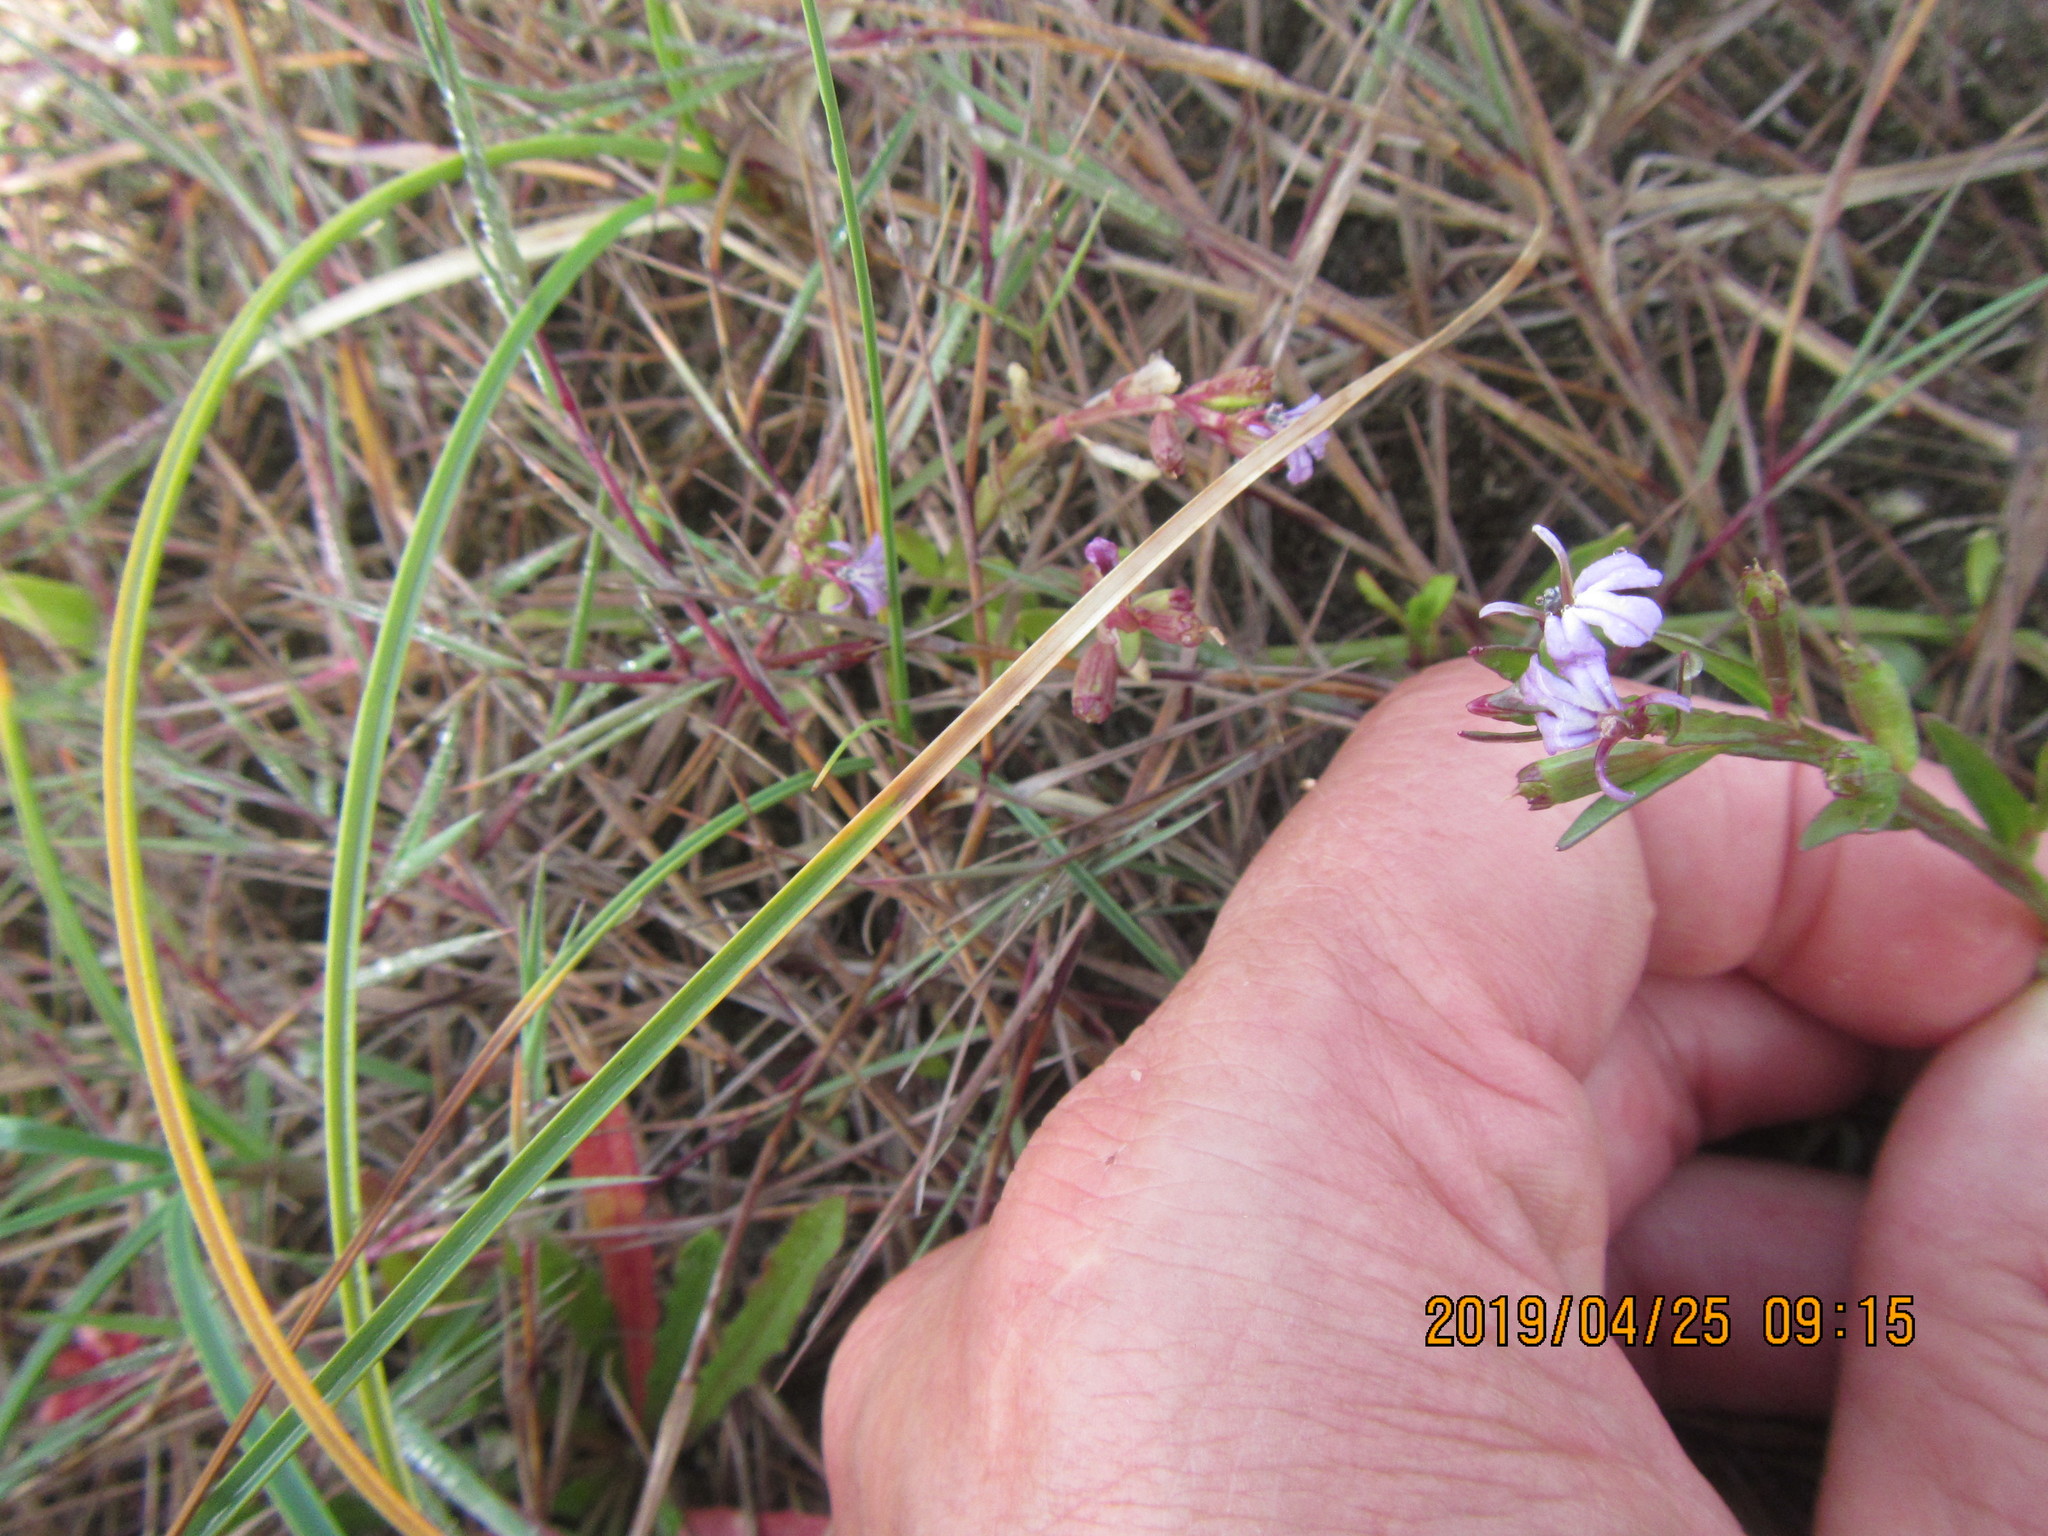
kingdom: Plantae
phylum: Tracheophyta
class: Magnoliopsida
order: Asterales
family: Campanulaceae
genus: Lobelia
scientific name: Lobelia anceps
